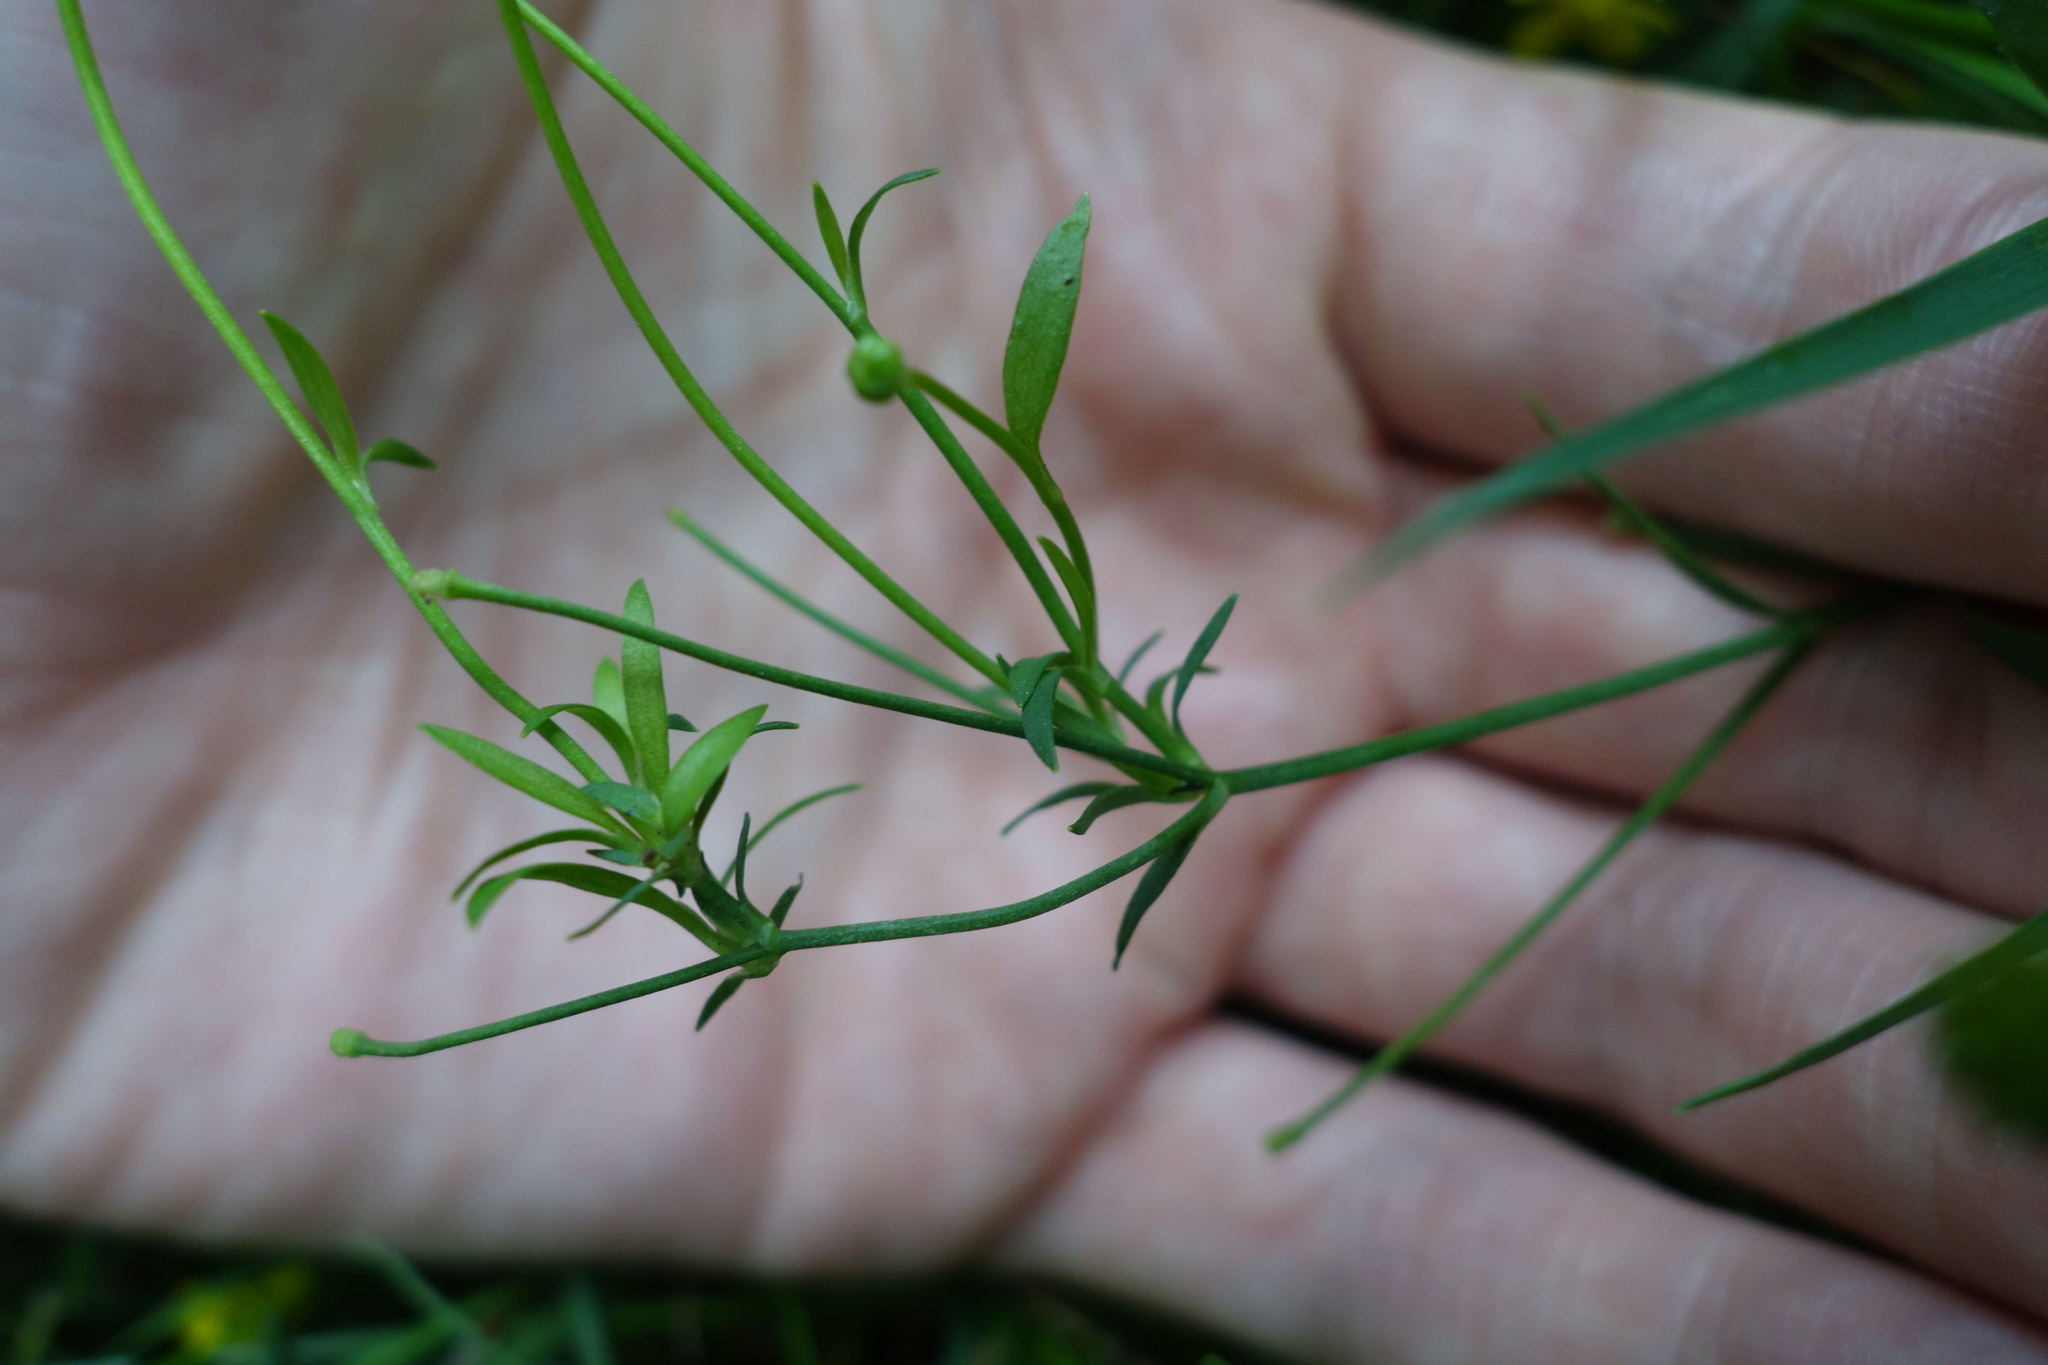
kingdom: Plantae
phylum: Tracheophyta
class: Magnoliopsida
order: Ranunculales
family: Ranunculaceae
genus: Ranunculus
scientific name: Ranunculus flammula
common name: Lesser spearwort
